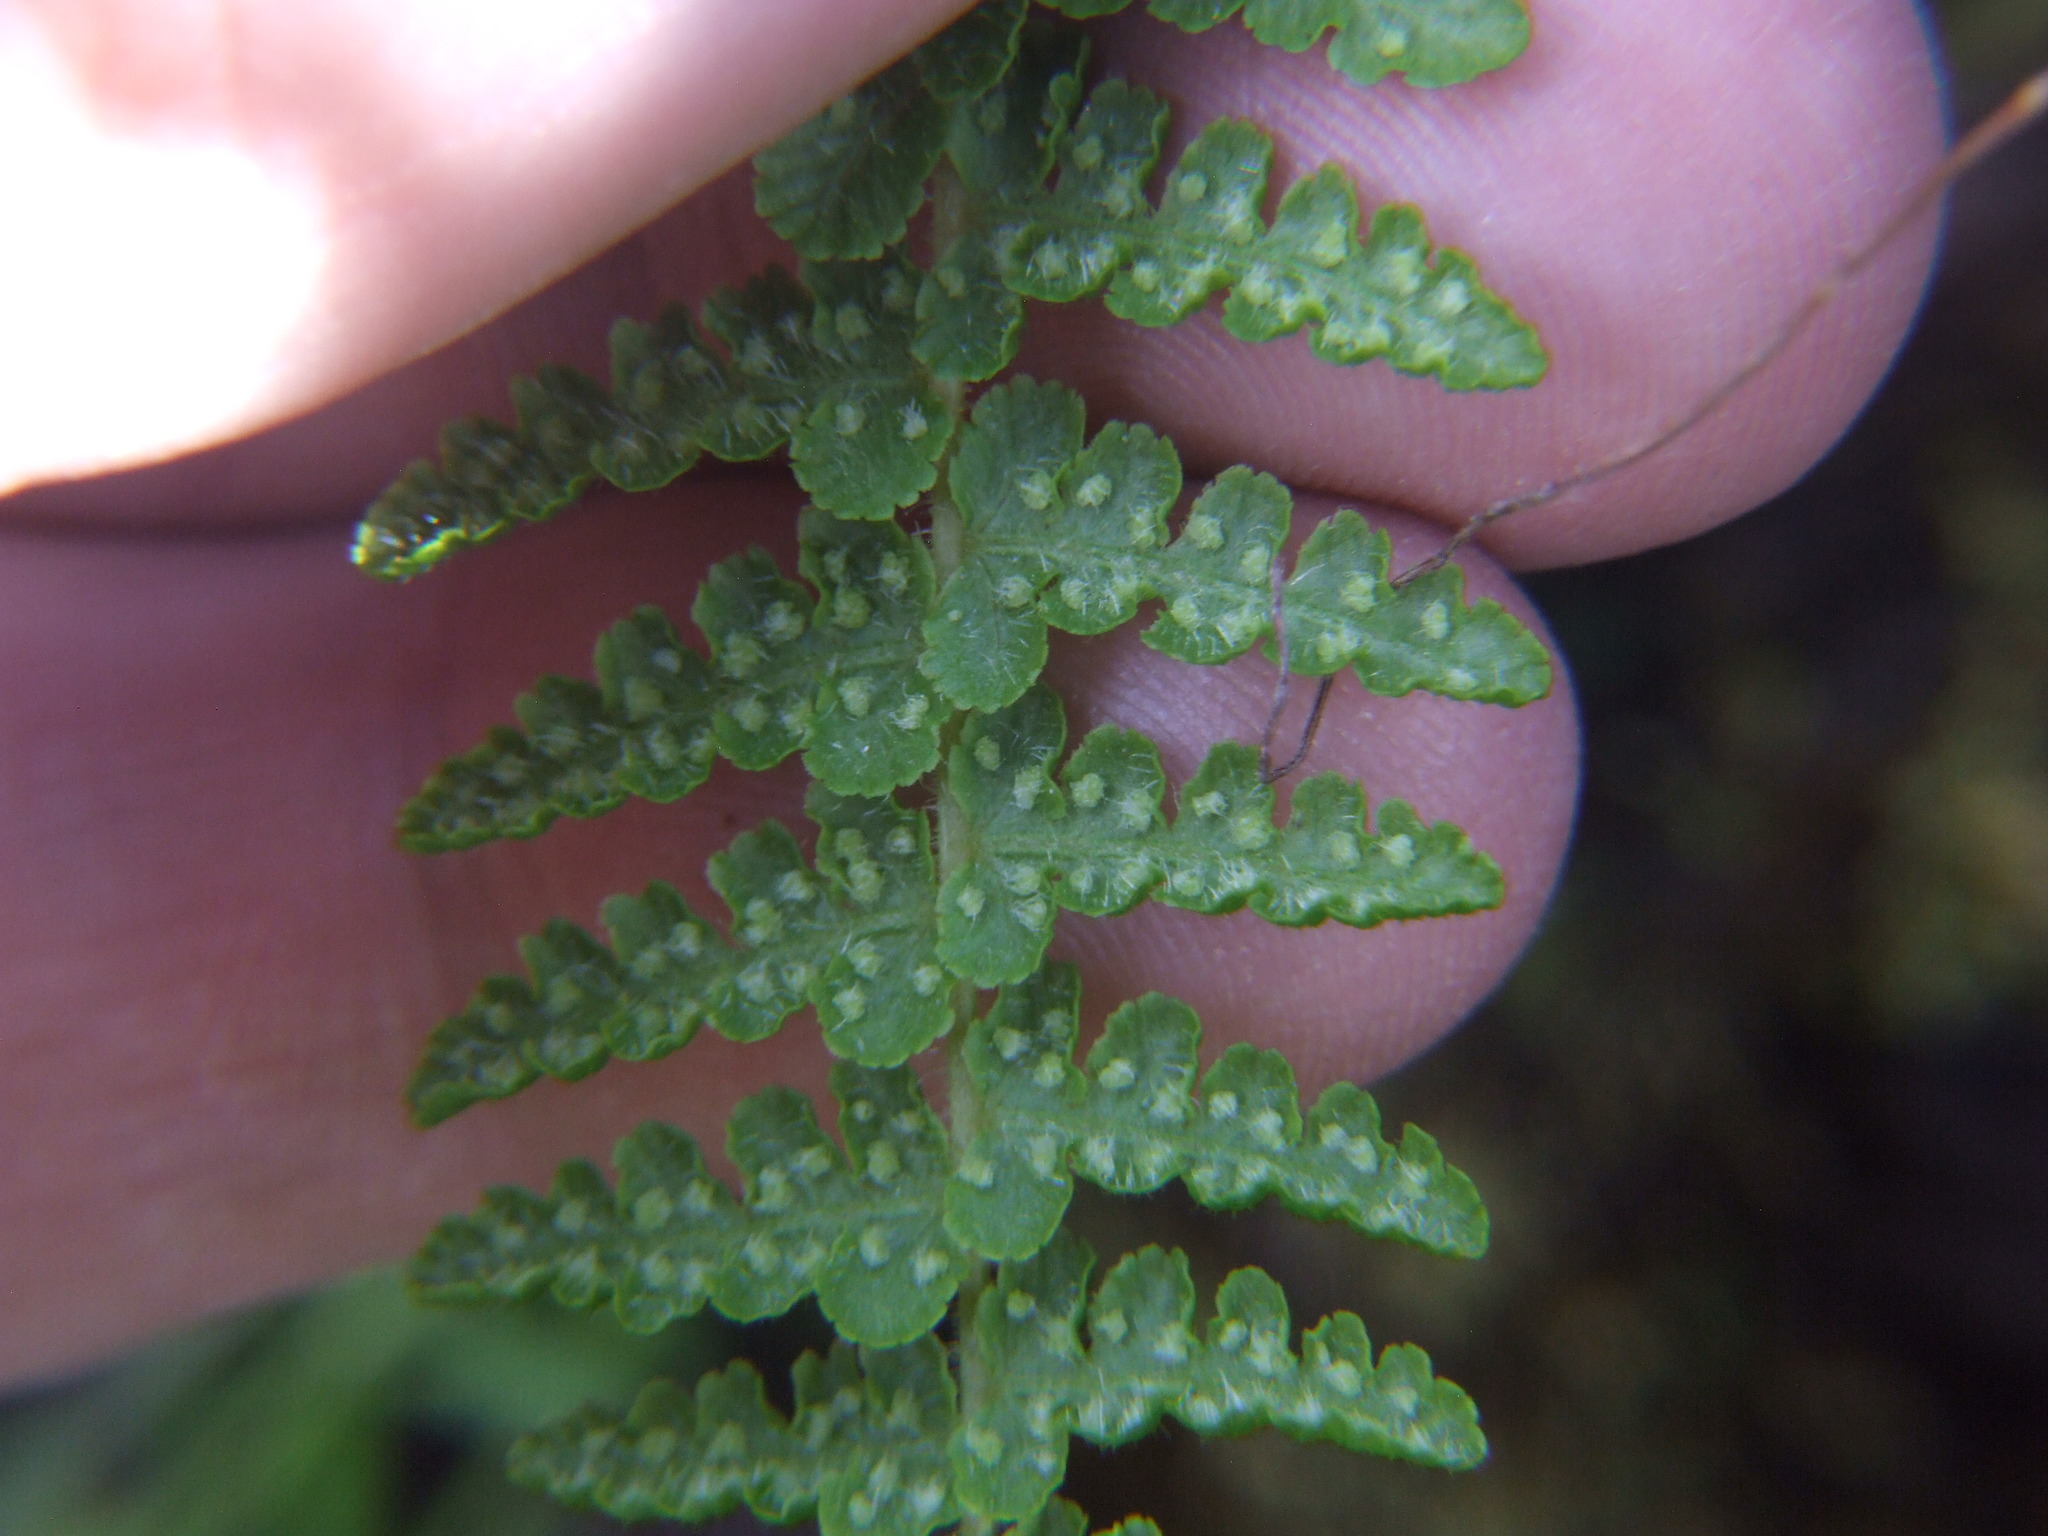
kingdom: Plantae
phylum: Tracheophyta
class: Polypodiopsida
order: Polypodiales
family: Woodsiaceae
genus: Physematium
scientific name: Physematium montevidense
